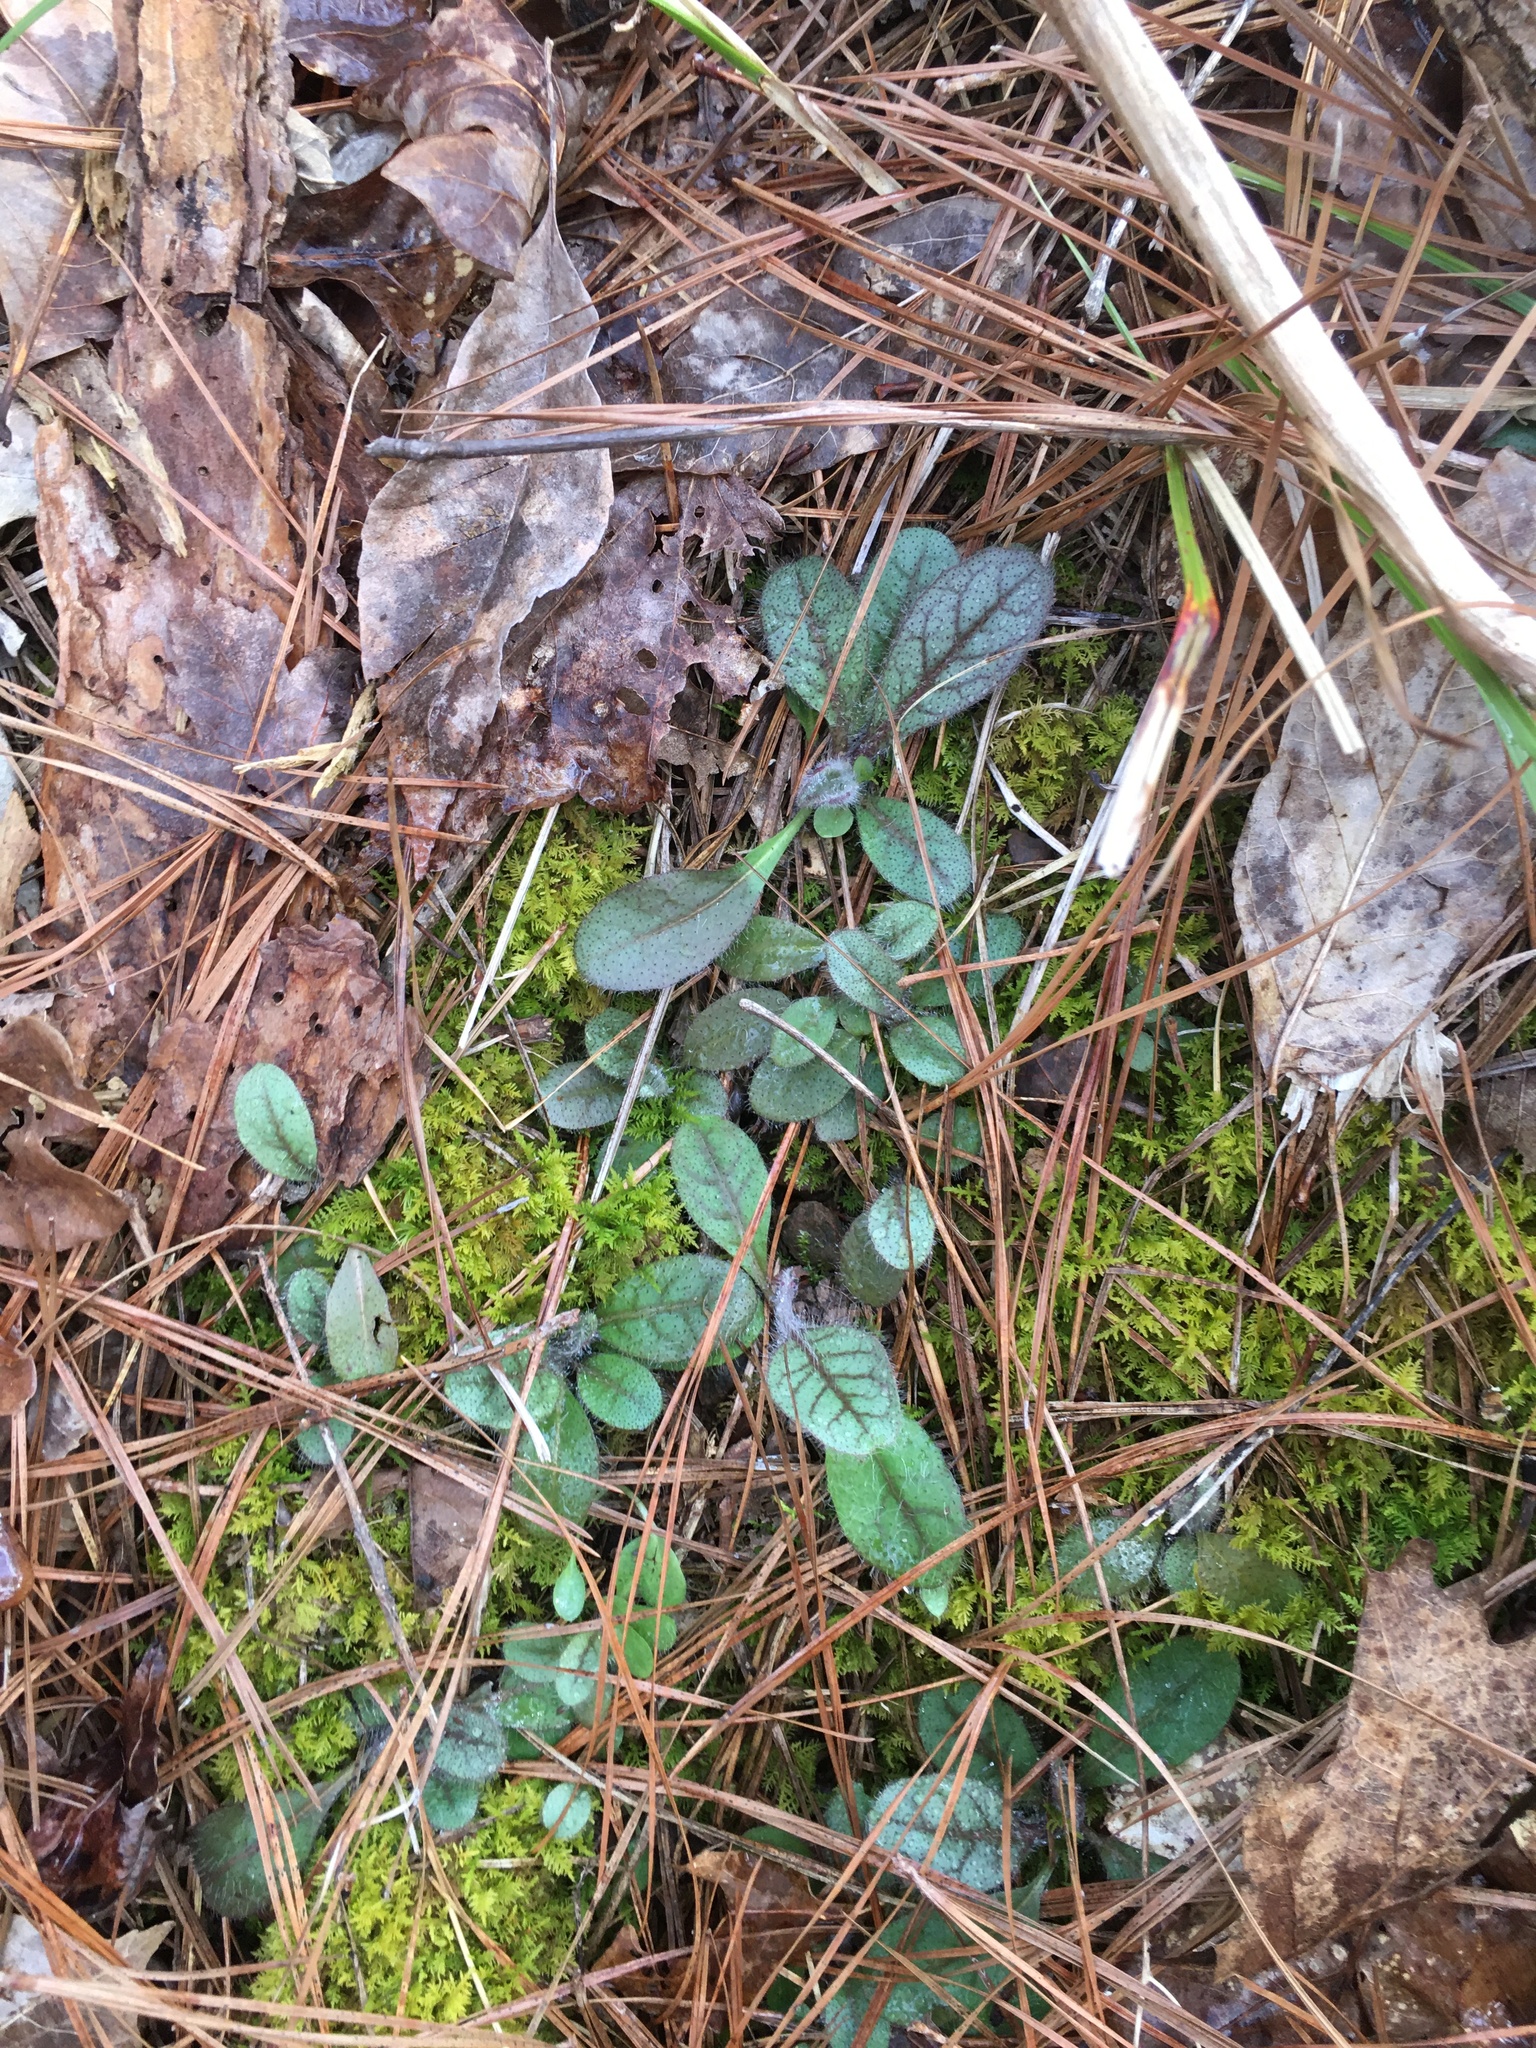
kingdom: Plantae
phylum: Tracheophyta
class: Magnoliopsida
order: Asterales
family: Asteraceae
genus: Hieracium
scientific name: Hieracium venosum
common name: Rattlesnake hawkweed
